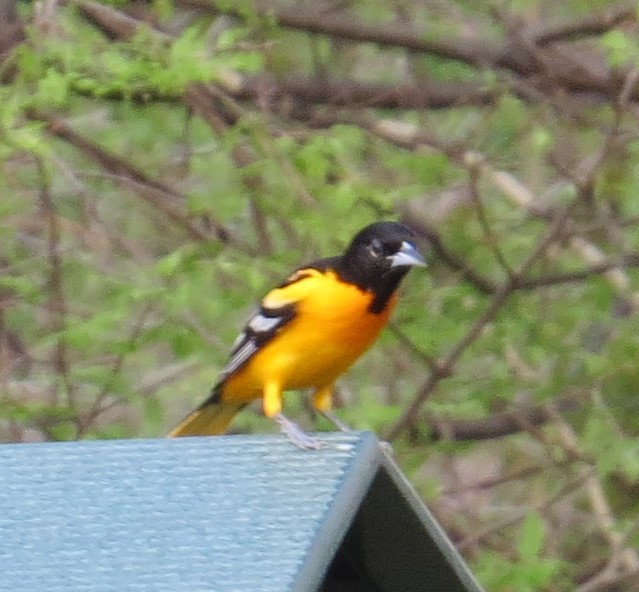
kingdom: Animalia
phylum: Chordata
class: Aves
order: Passeriformes
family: Icteridae
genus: Icterus
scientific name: Icterus galbula
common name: Baltimore oriole
